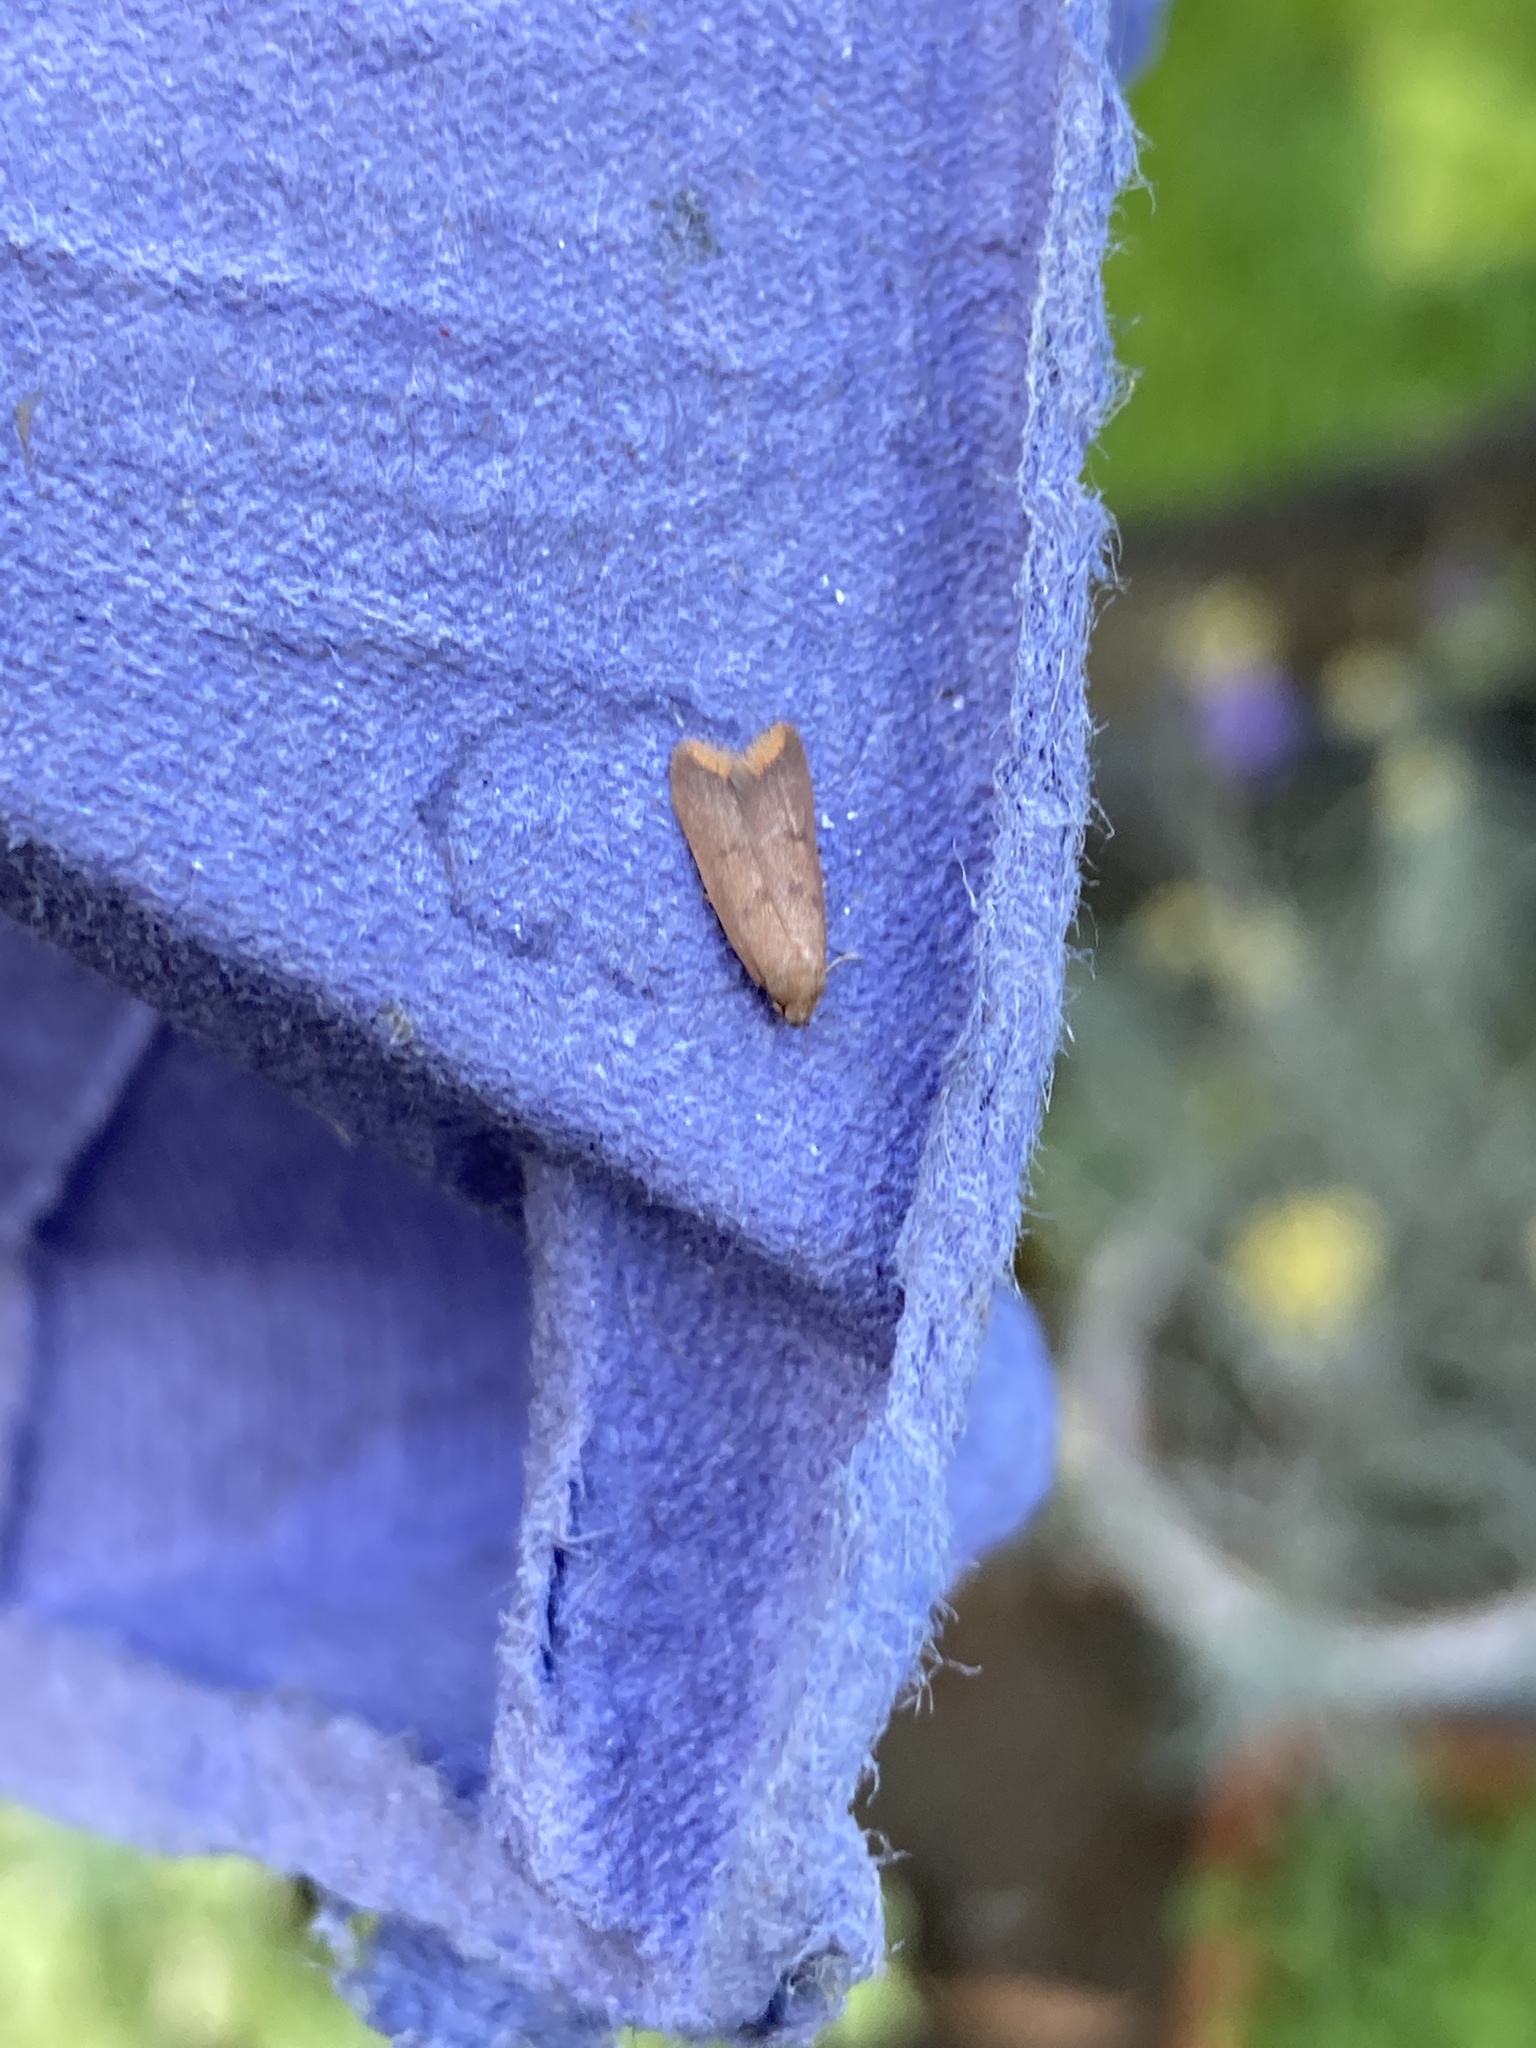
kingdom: Animalia
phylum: Arthropoda
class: Insecta
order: Lepidoptera
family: Oecophoridae
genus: Tachystola
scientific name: Tachystola acroxantha
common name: Ruddy streak
